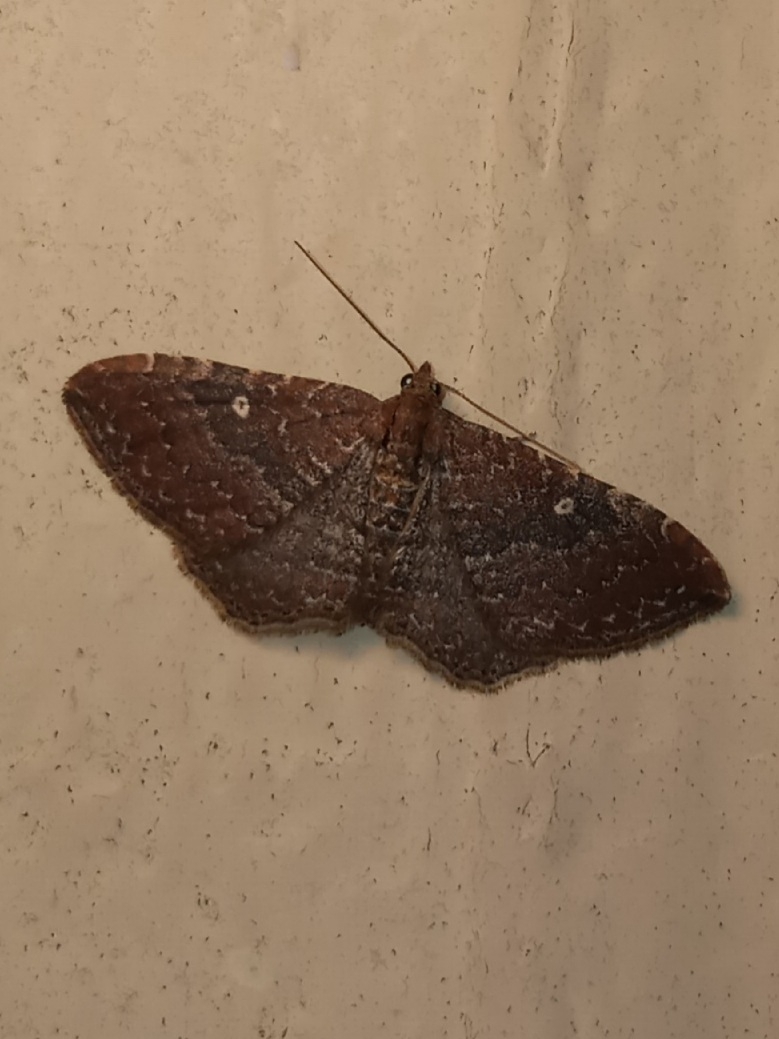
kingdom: Animalia
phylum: Arthropoda
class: Insecta
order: Lepidoptera
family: Geometridae
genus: Orthonama
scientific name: Orthonama obstipata
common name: The gem
